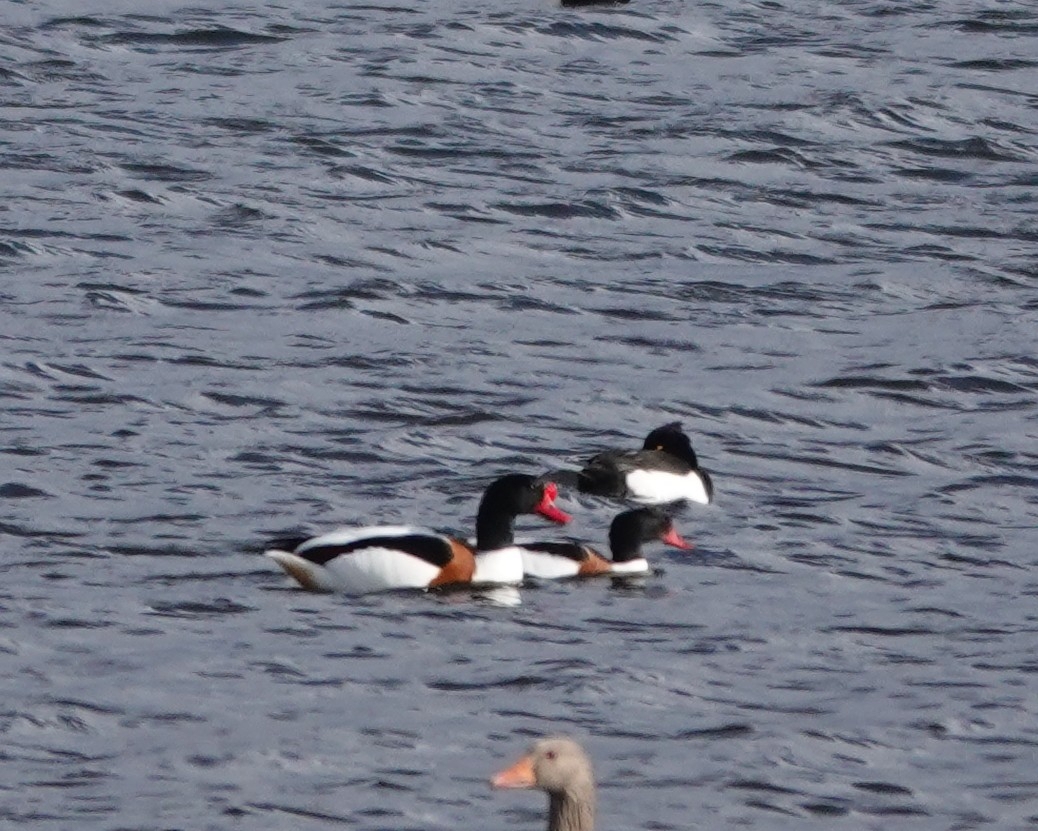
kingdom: Animalia
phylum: Chordata
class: Aves
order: Anseriformes
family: Anatidae
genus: Tadorna
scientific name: Tadorna tadorna
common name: Common shelduck
